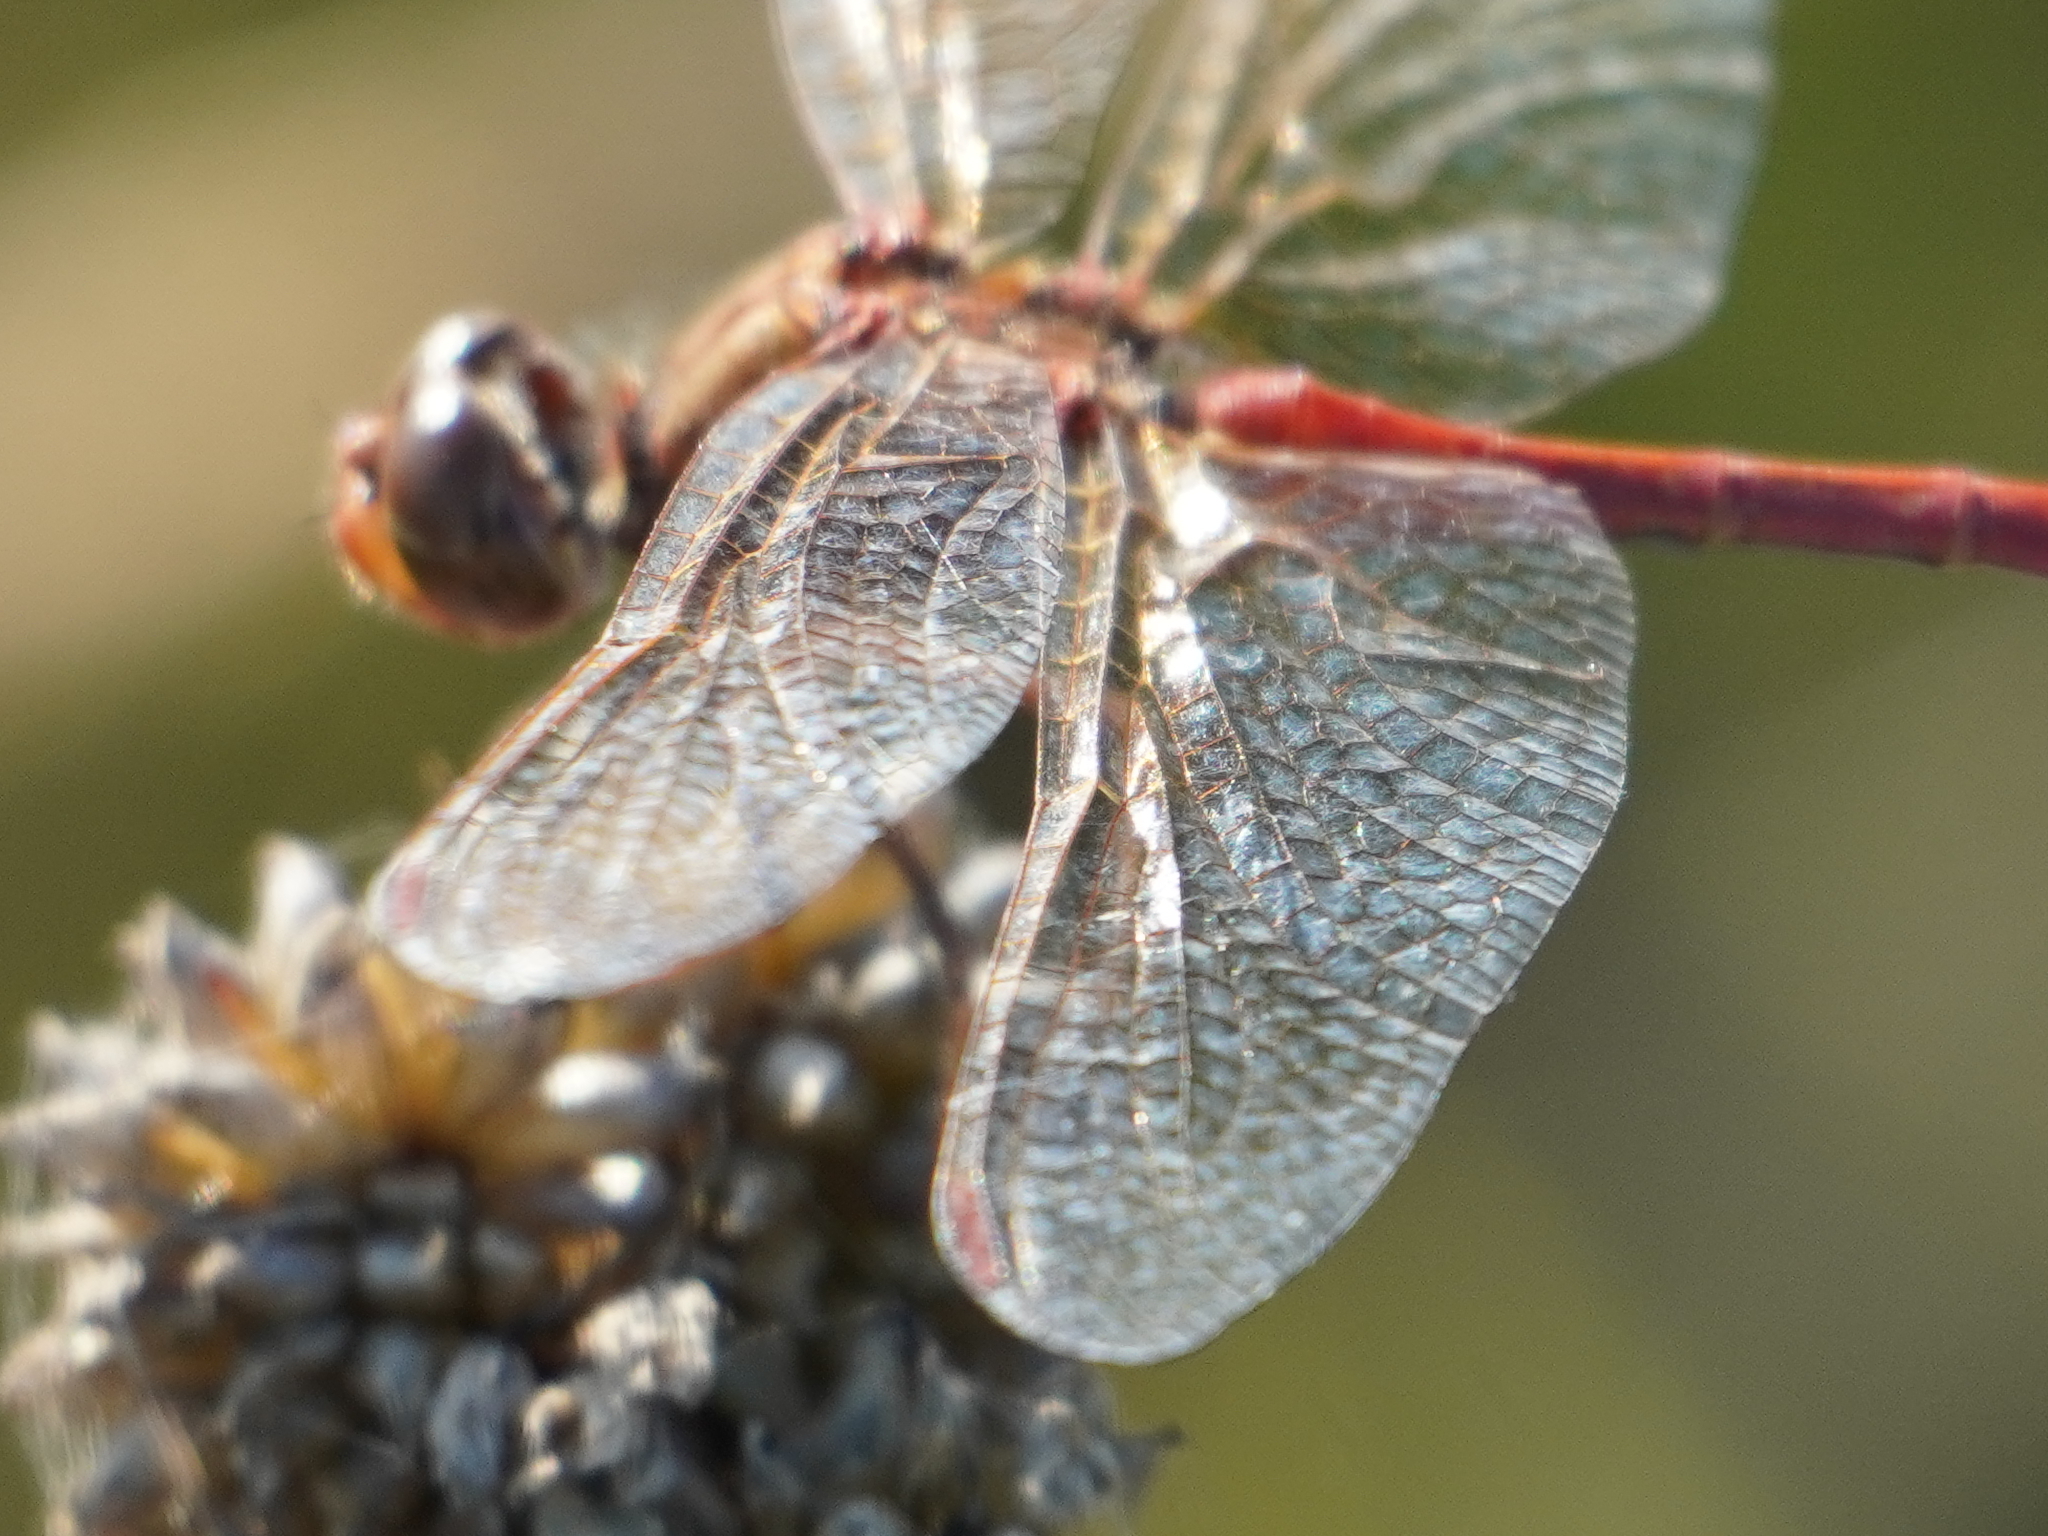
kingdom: Animalia
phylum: Arthropoda
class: Insecta
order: Odonata
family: Libellulidae
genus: Sympetrum
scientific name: Sympetrum meridionale
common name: Southern darter
